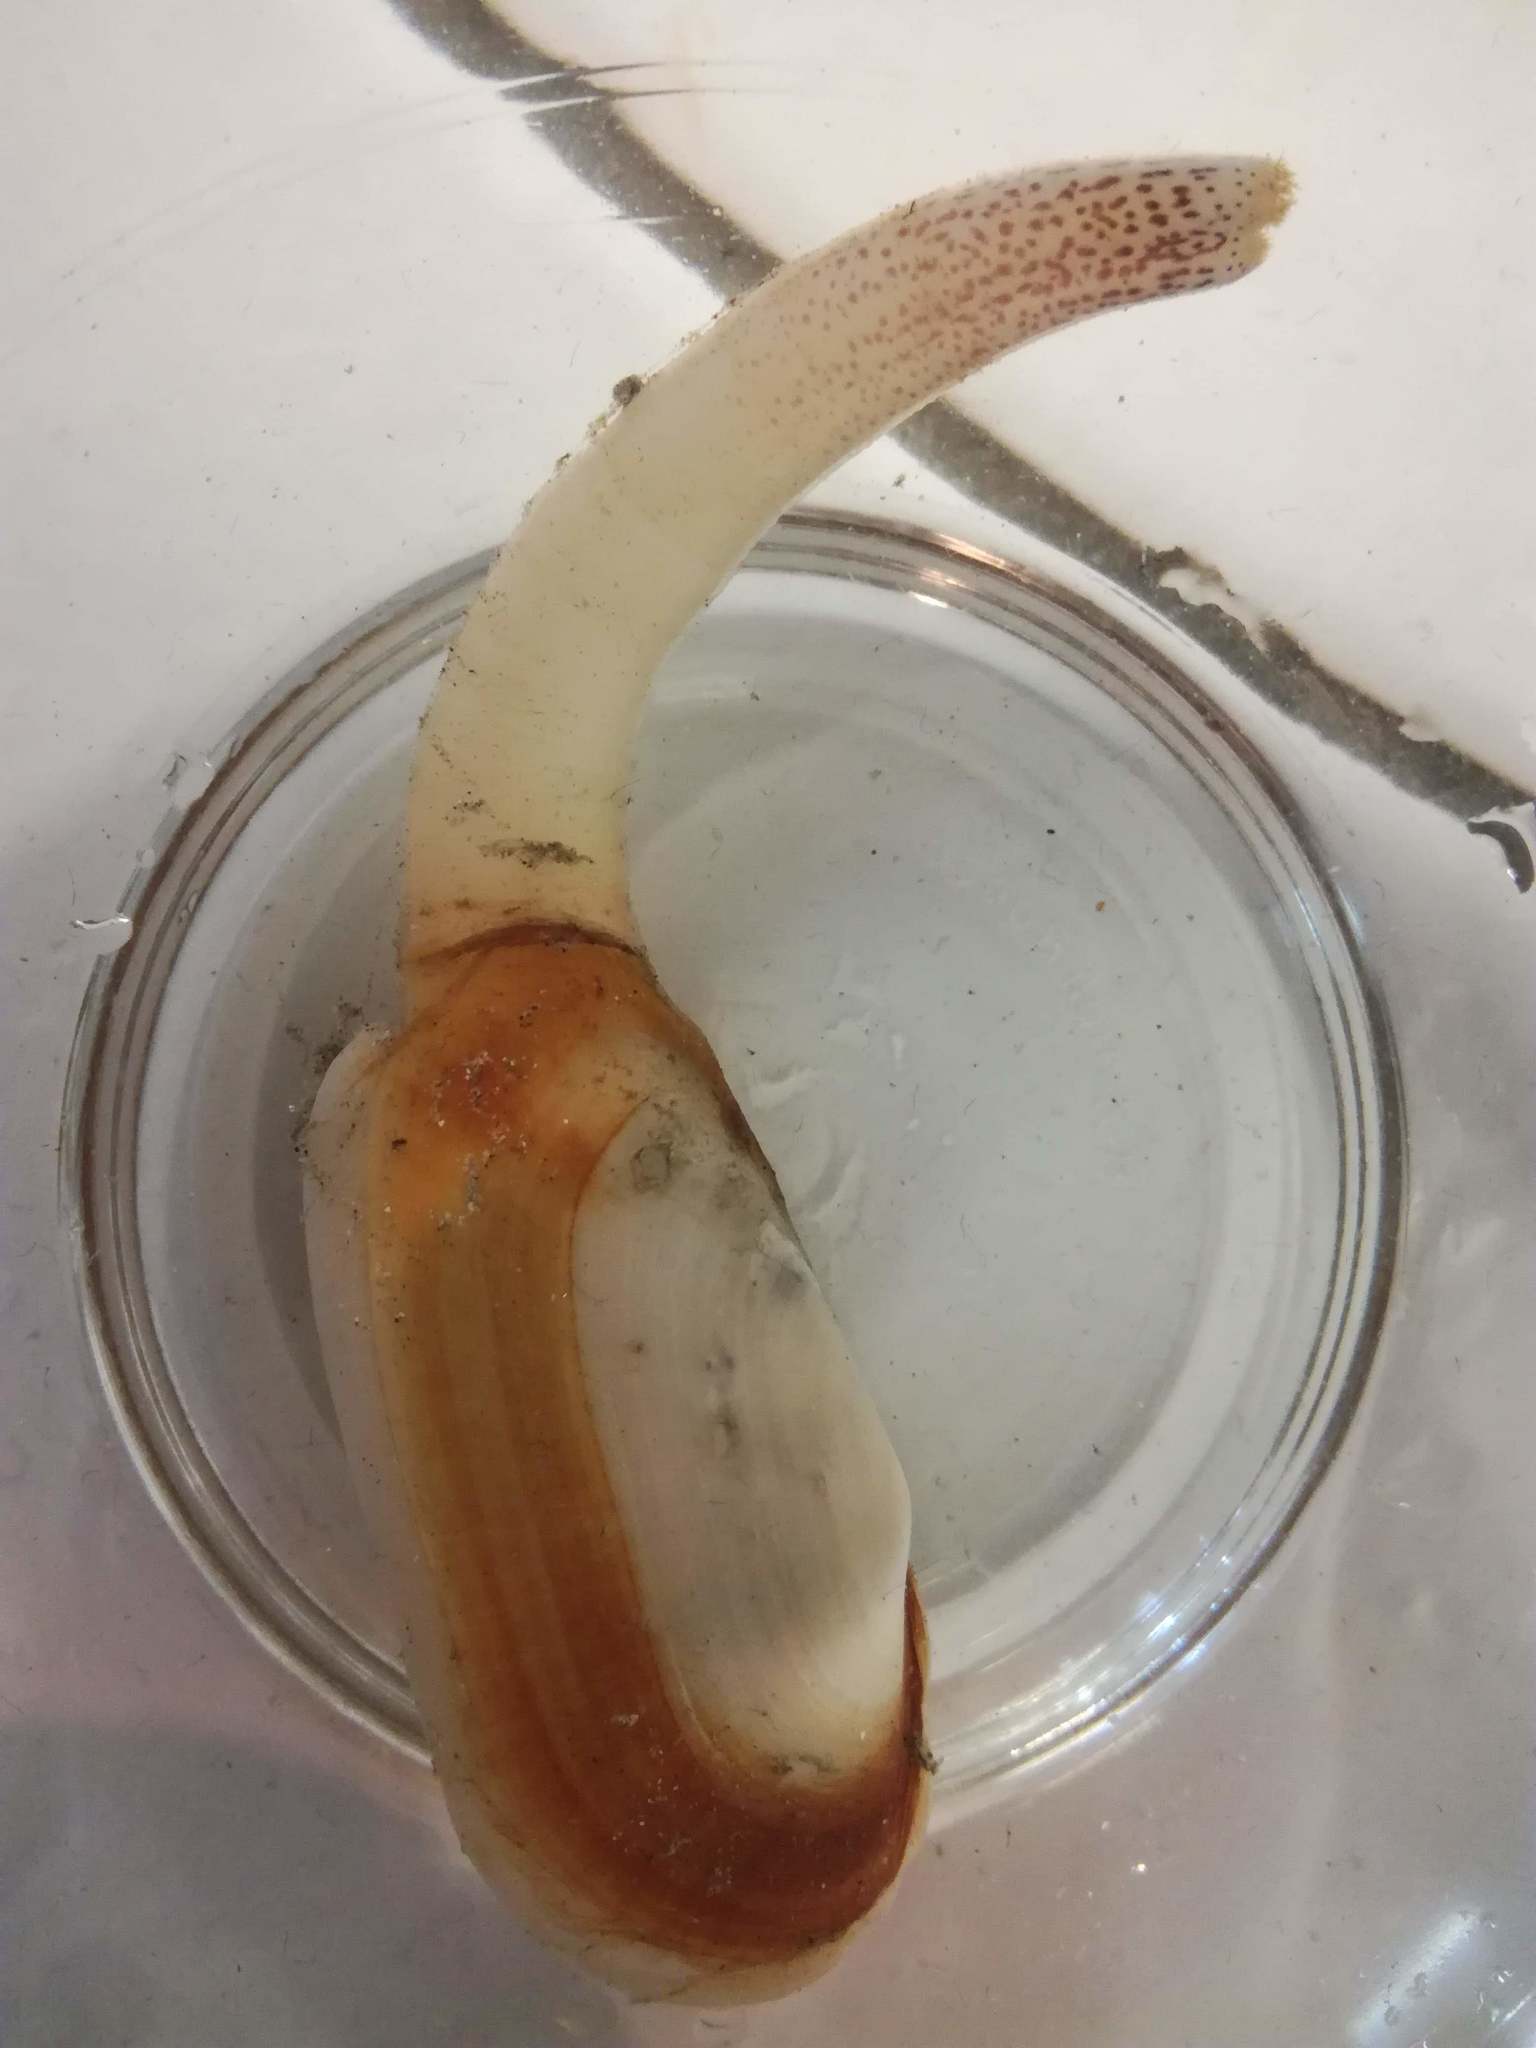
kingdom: Animalia
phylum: Mollusca
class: Bivalvia
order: Venerida
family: Mactridae
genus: Lutraria
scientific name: Lutraria angustior
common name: Narrow otter shell
